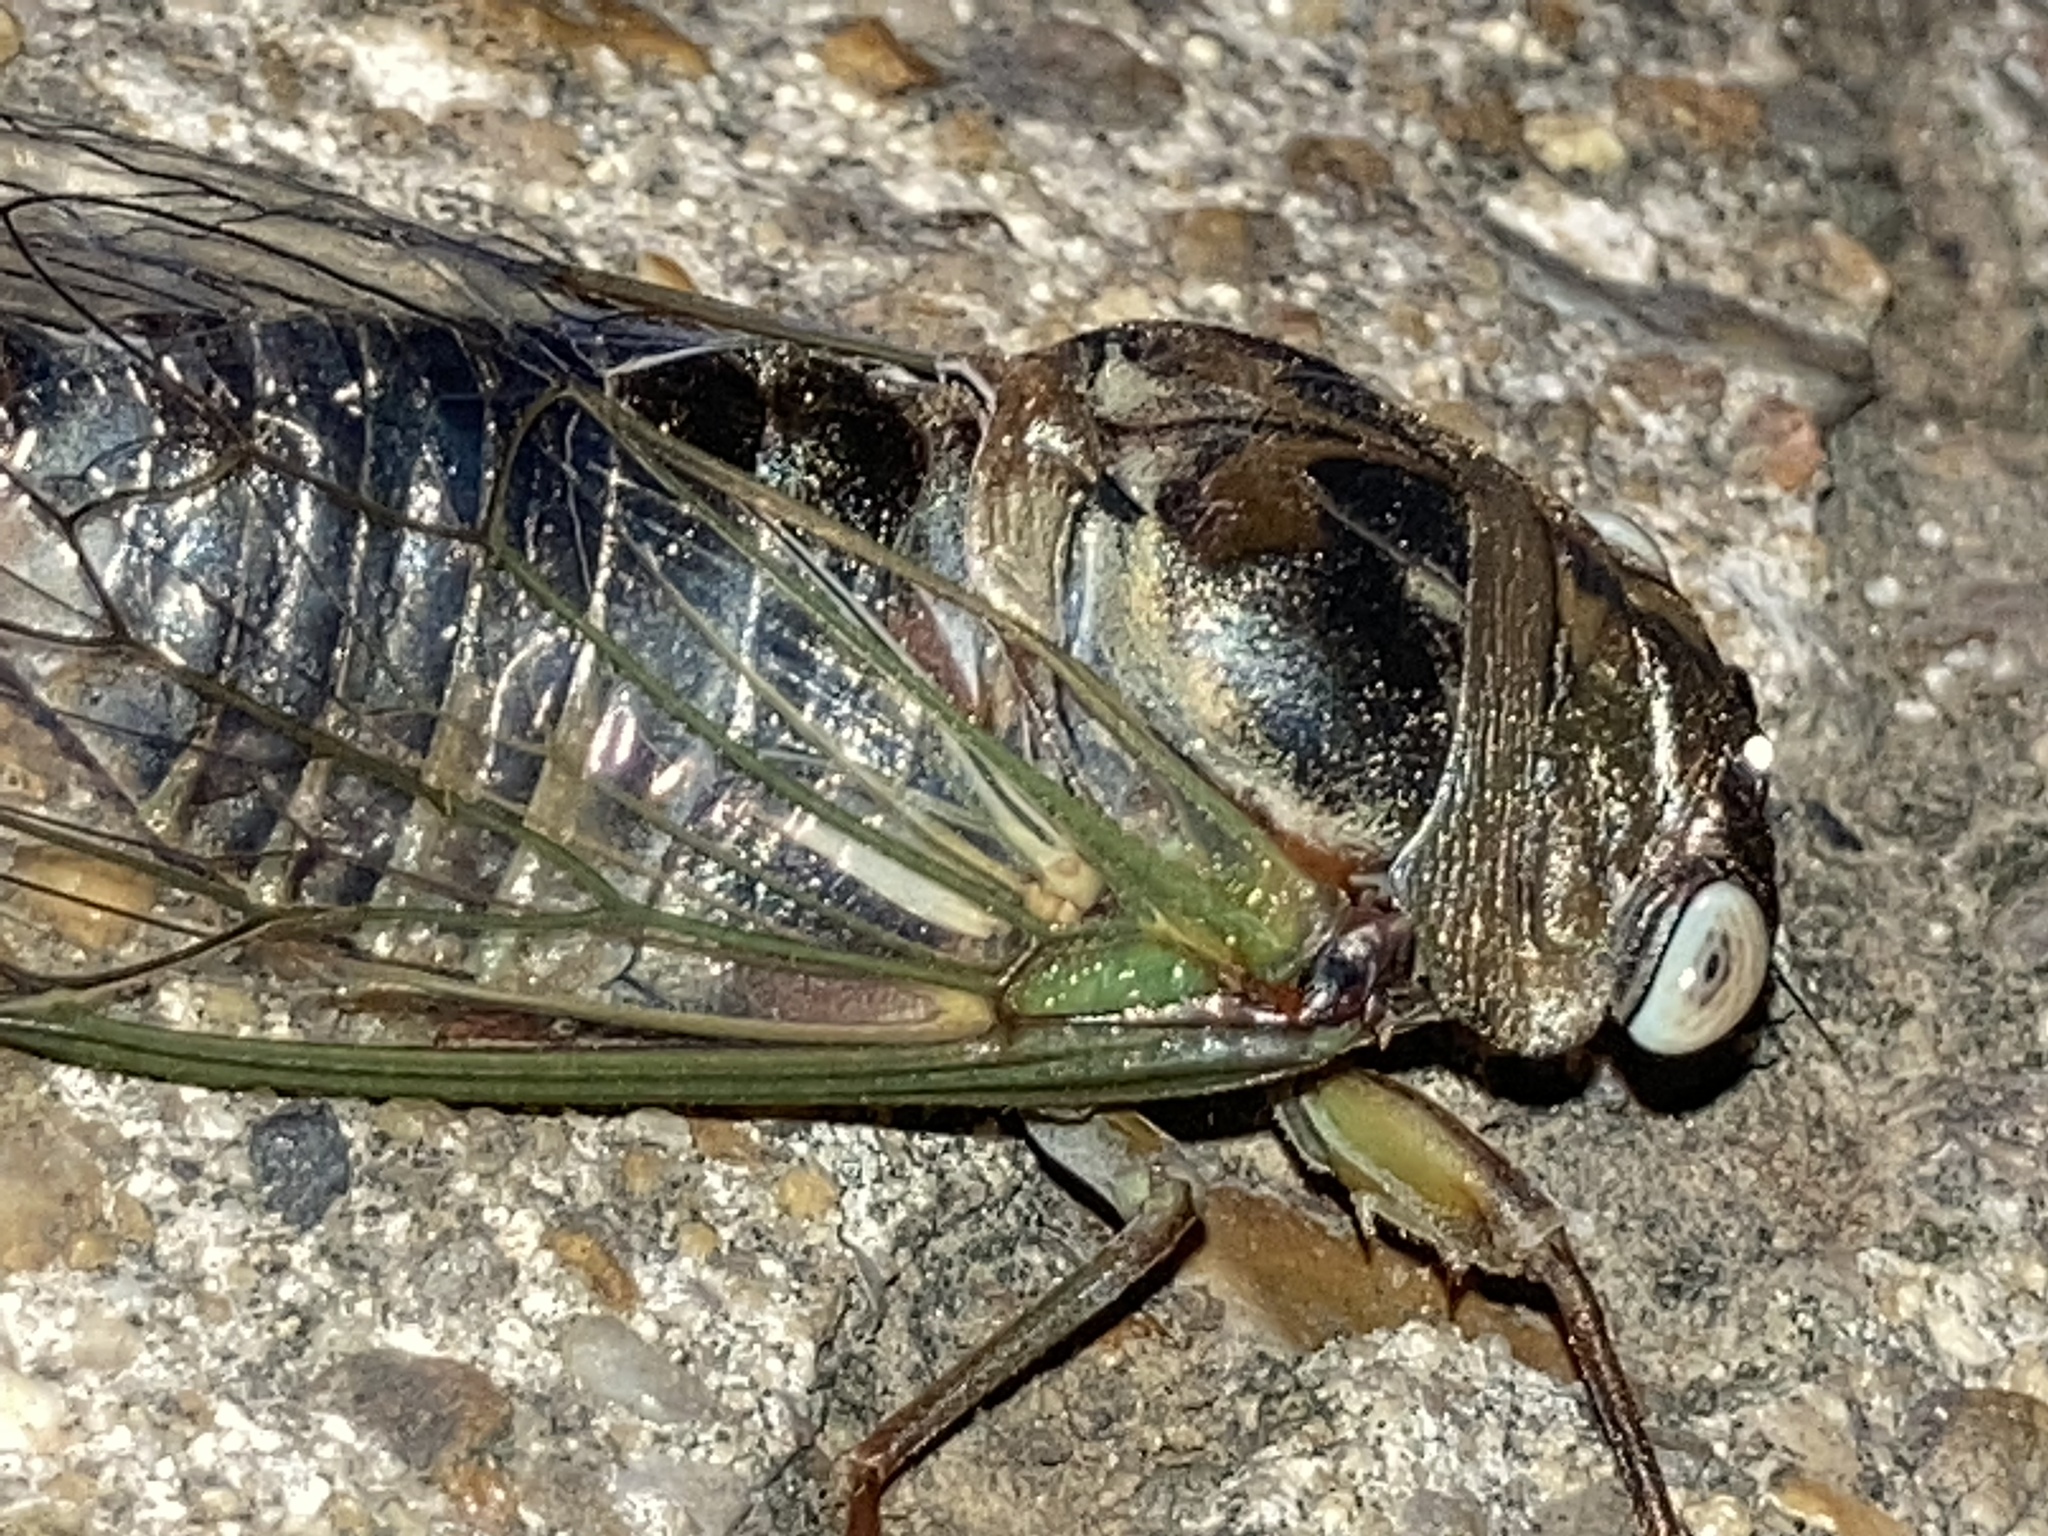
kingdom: Animalia
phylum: Arthropoda
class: Insecta
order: Hemiptera
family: Cicadidae
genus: Diceroprocta
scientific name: Diceroprocta grossa
